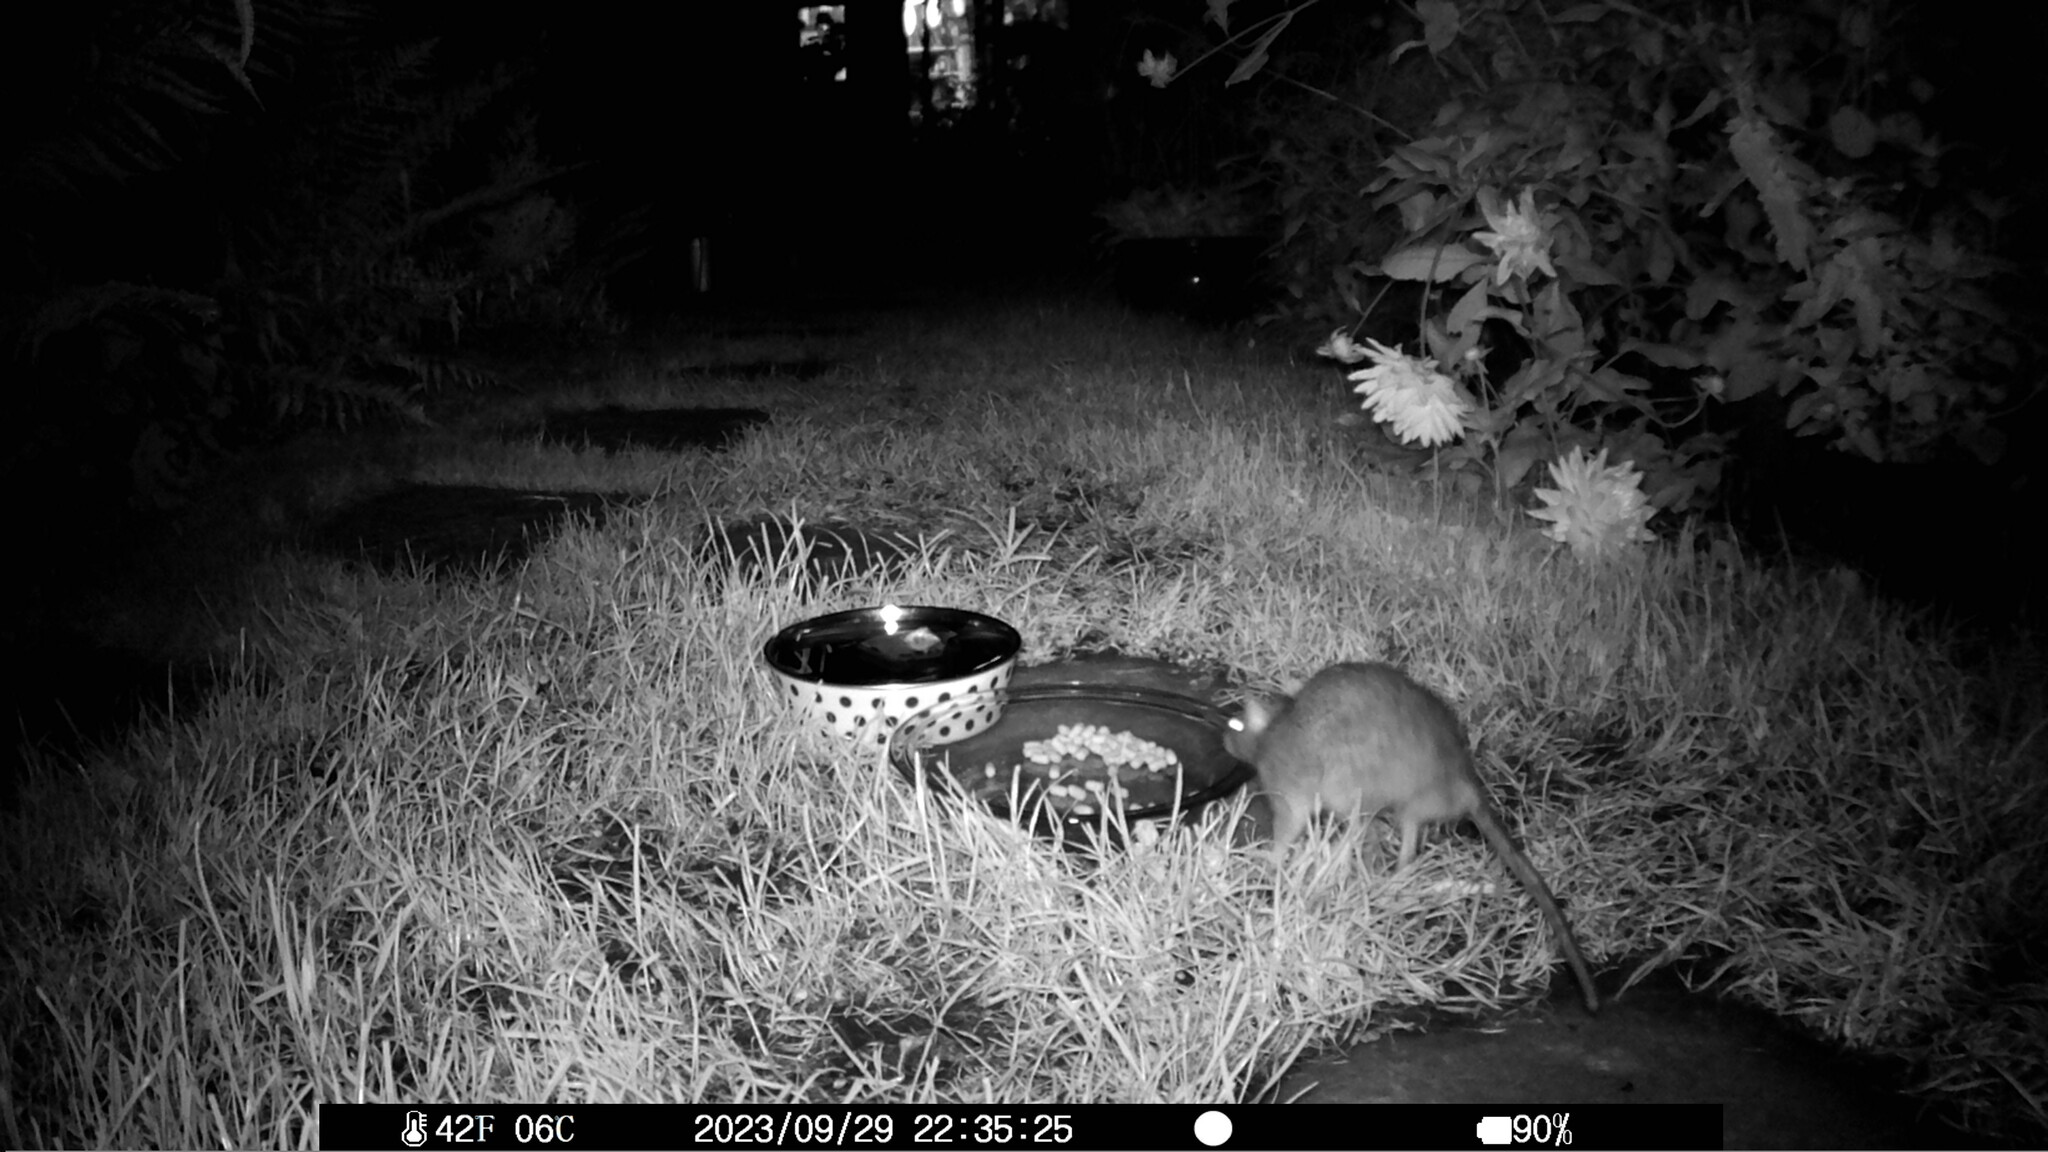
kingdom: Animalia
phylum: Chordata
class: Mammalia
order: Rodentia
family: Muridae
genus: Rattus
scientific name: Rattus norvegicus
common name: Brown rat
